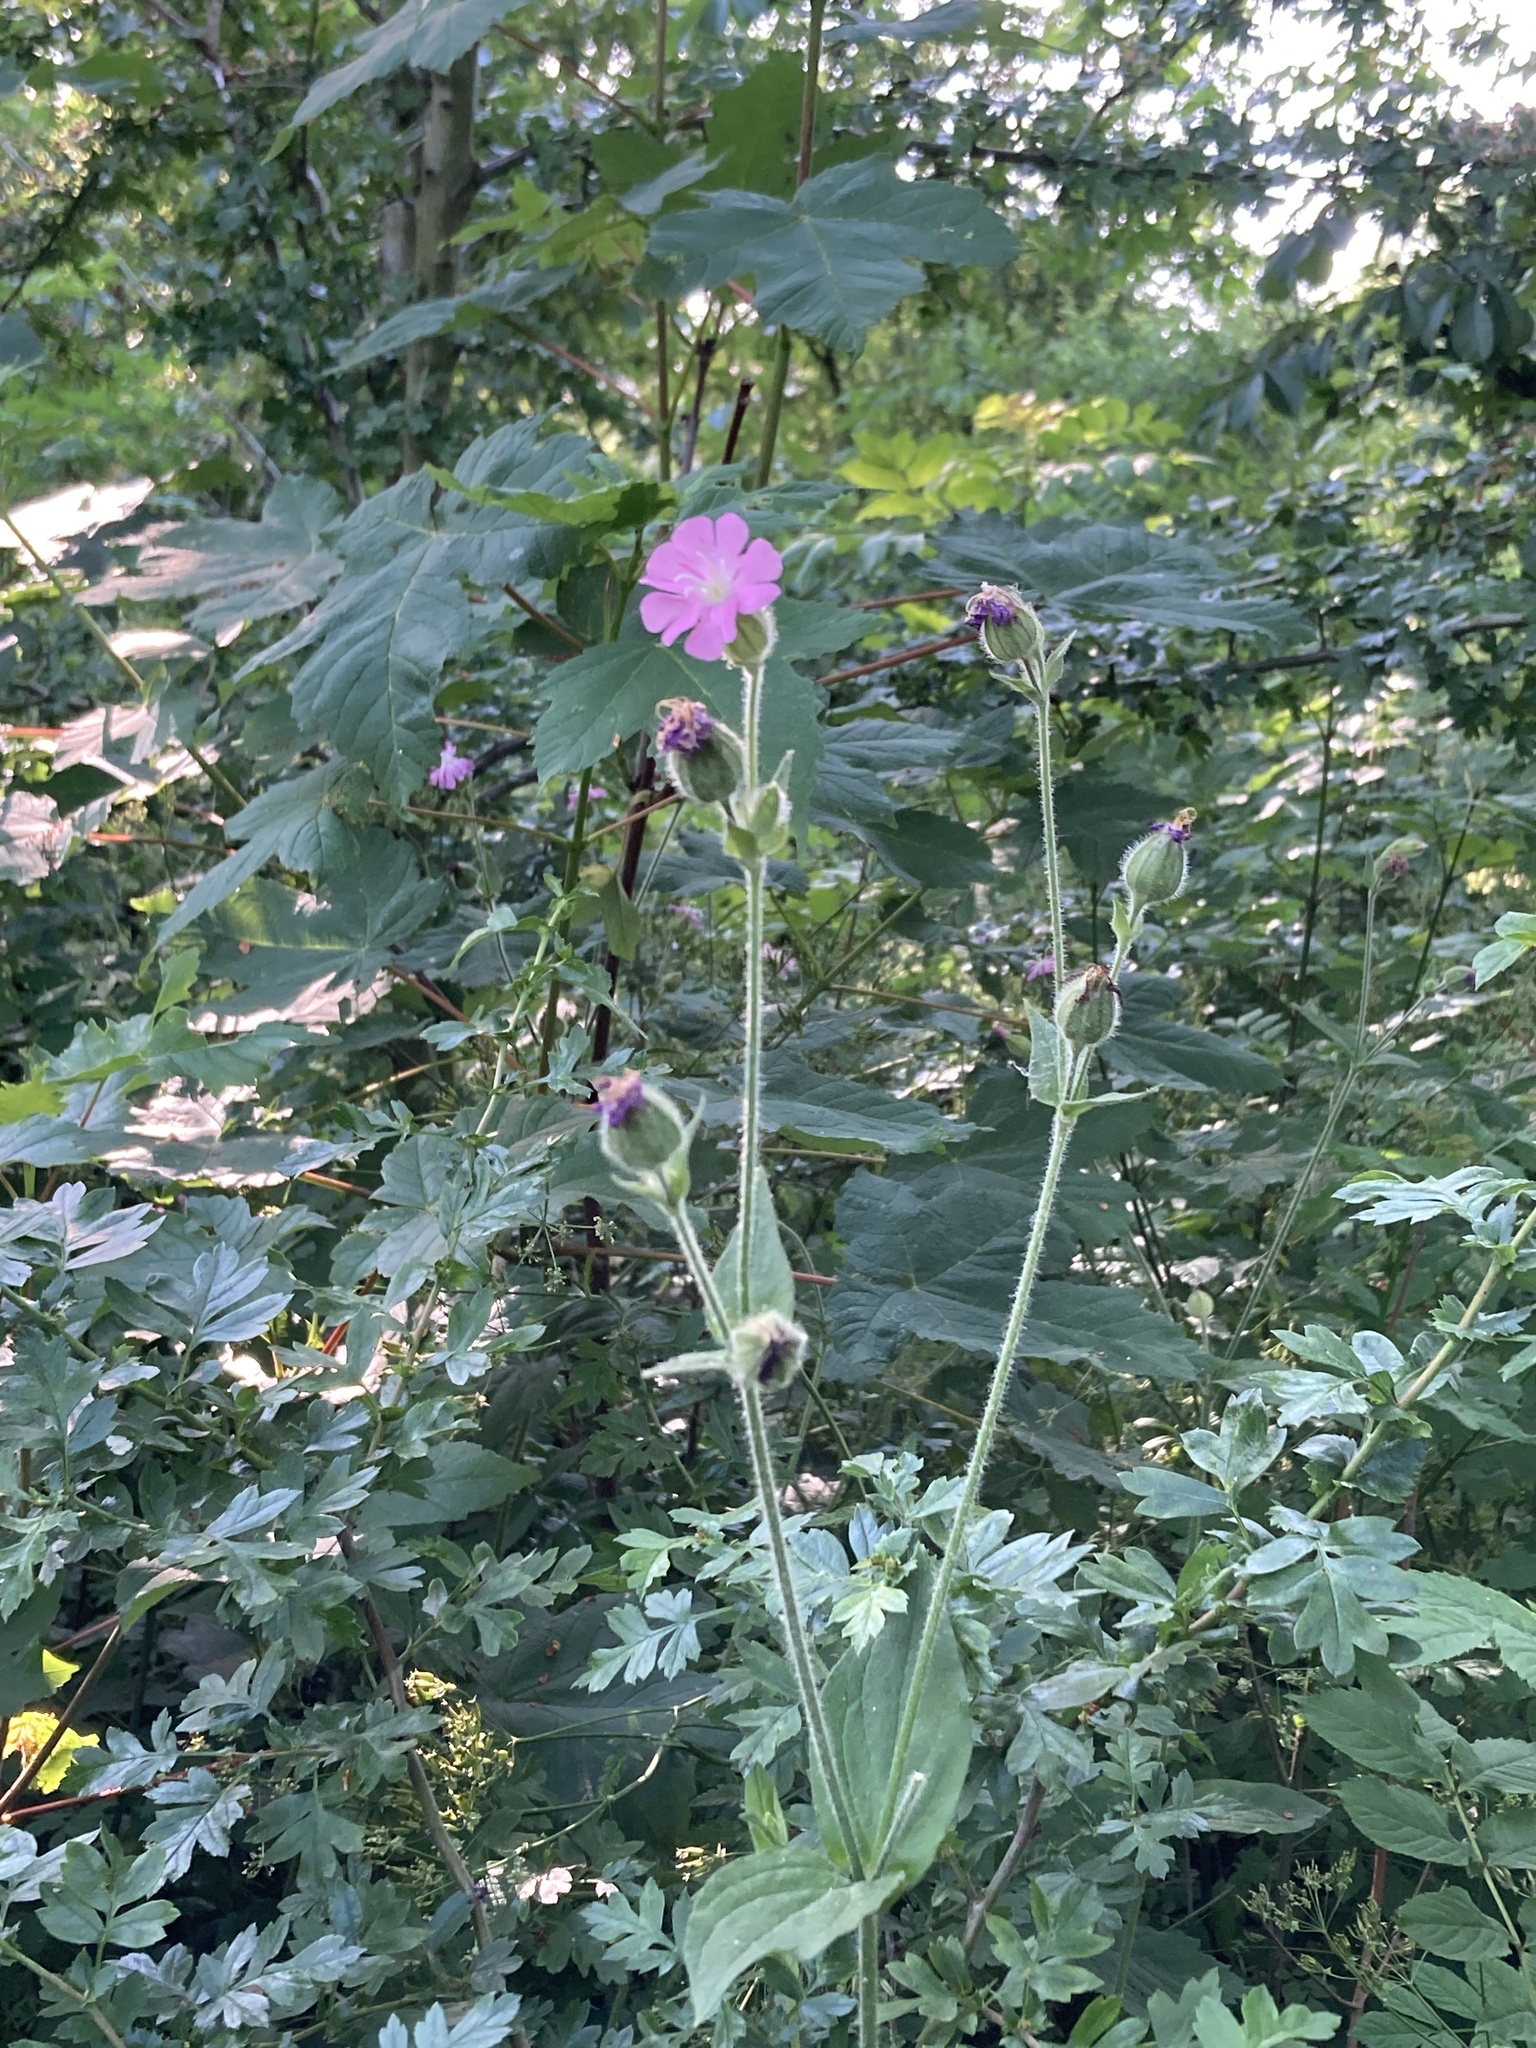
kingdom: Plantae
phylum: Tracheophyta
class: Magnoliopsida
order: Caryophyllales
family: Caryophyllaceae
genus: Silene
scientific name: Silene dioica
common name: Red campion
